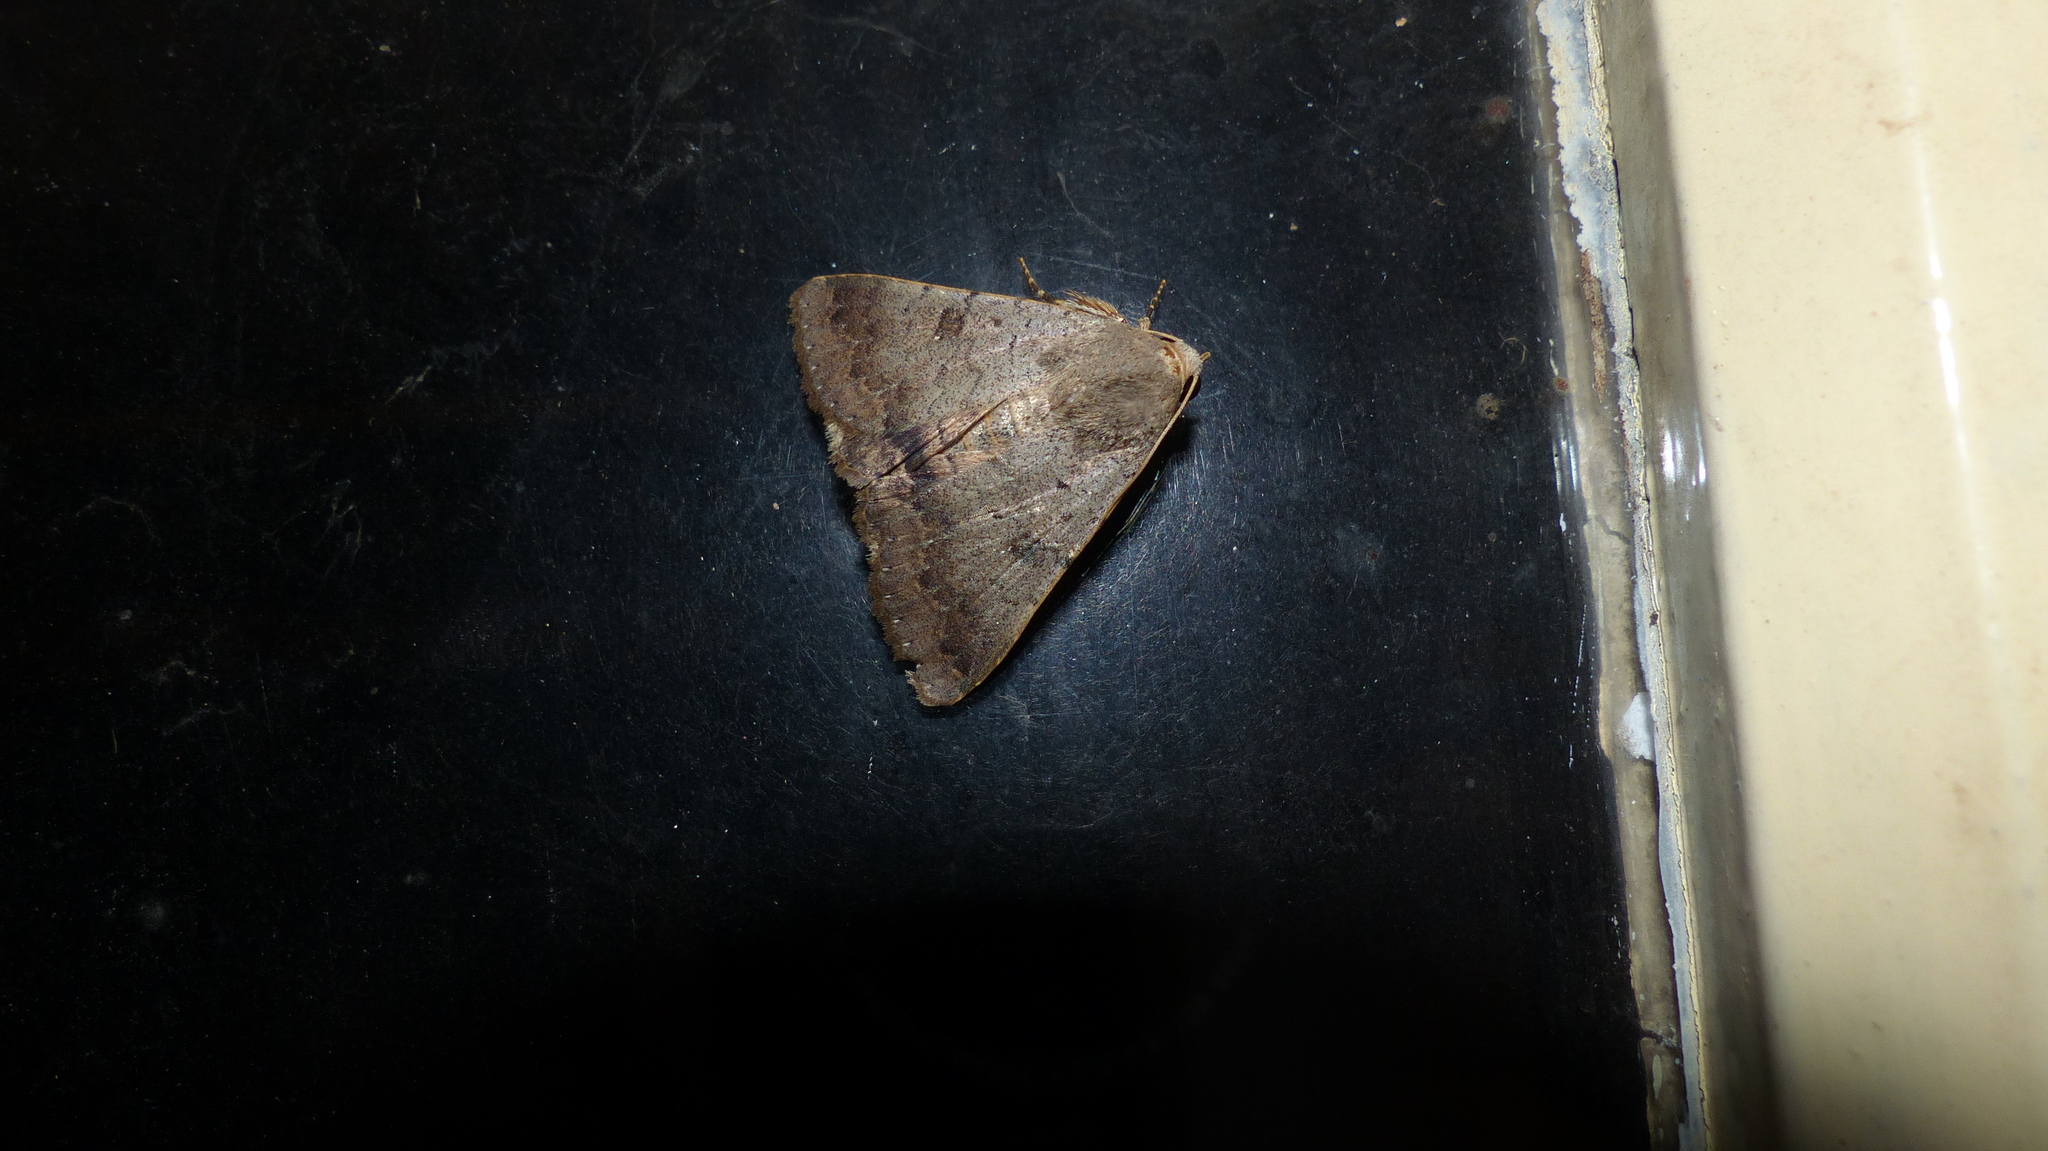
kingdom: Animalia
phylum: Arthropoda
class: Insecta
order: Lepidoptera
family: Erebidae
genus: Pandesma
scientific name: Pandesma anysa
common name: Moth
